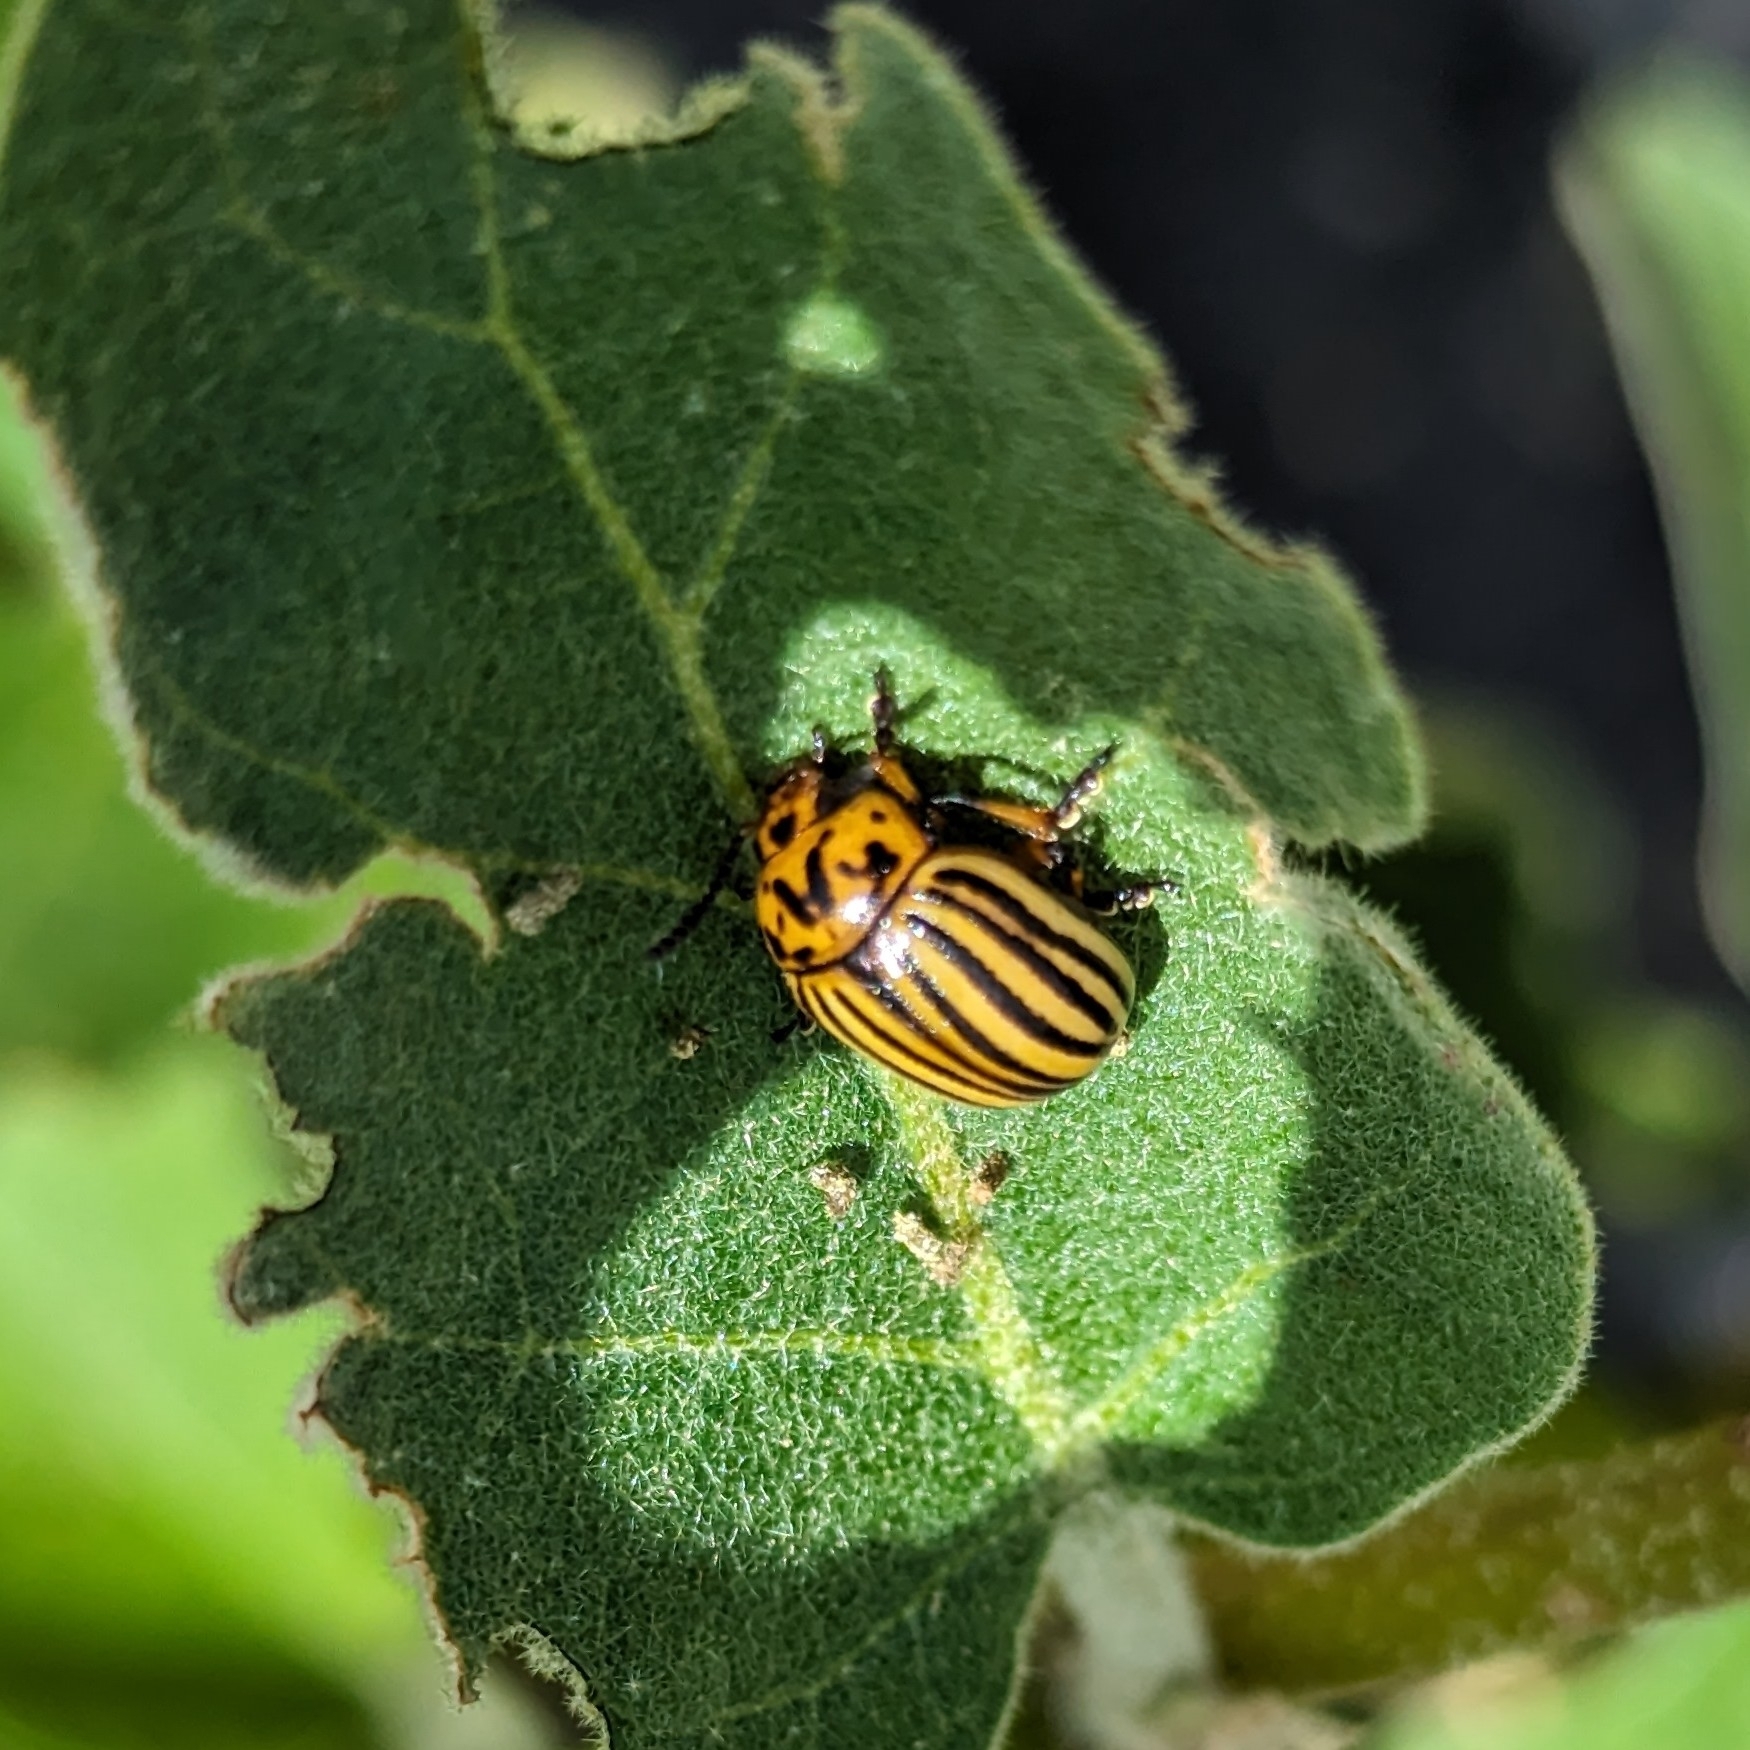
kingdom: Animalia
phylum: Arthropoda
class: Insecta
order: Coleoptera
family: Chrysomelidae
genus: Leptinotarsa
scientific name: Leptinotarsa decemlineata
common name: Colorado potato beetle
